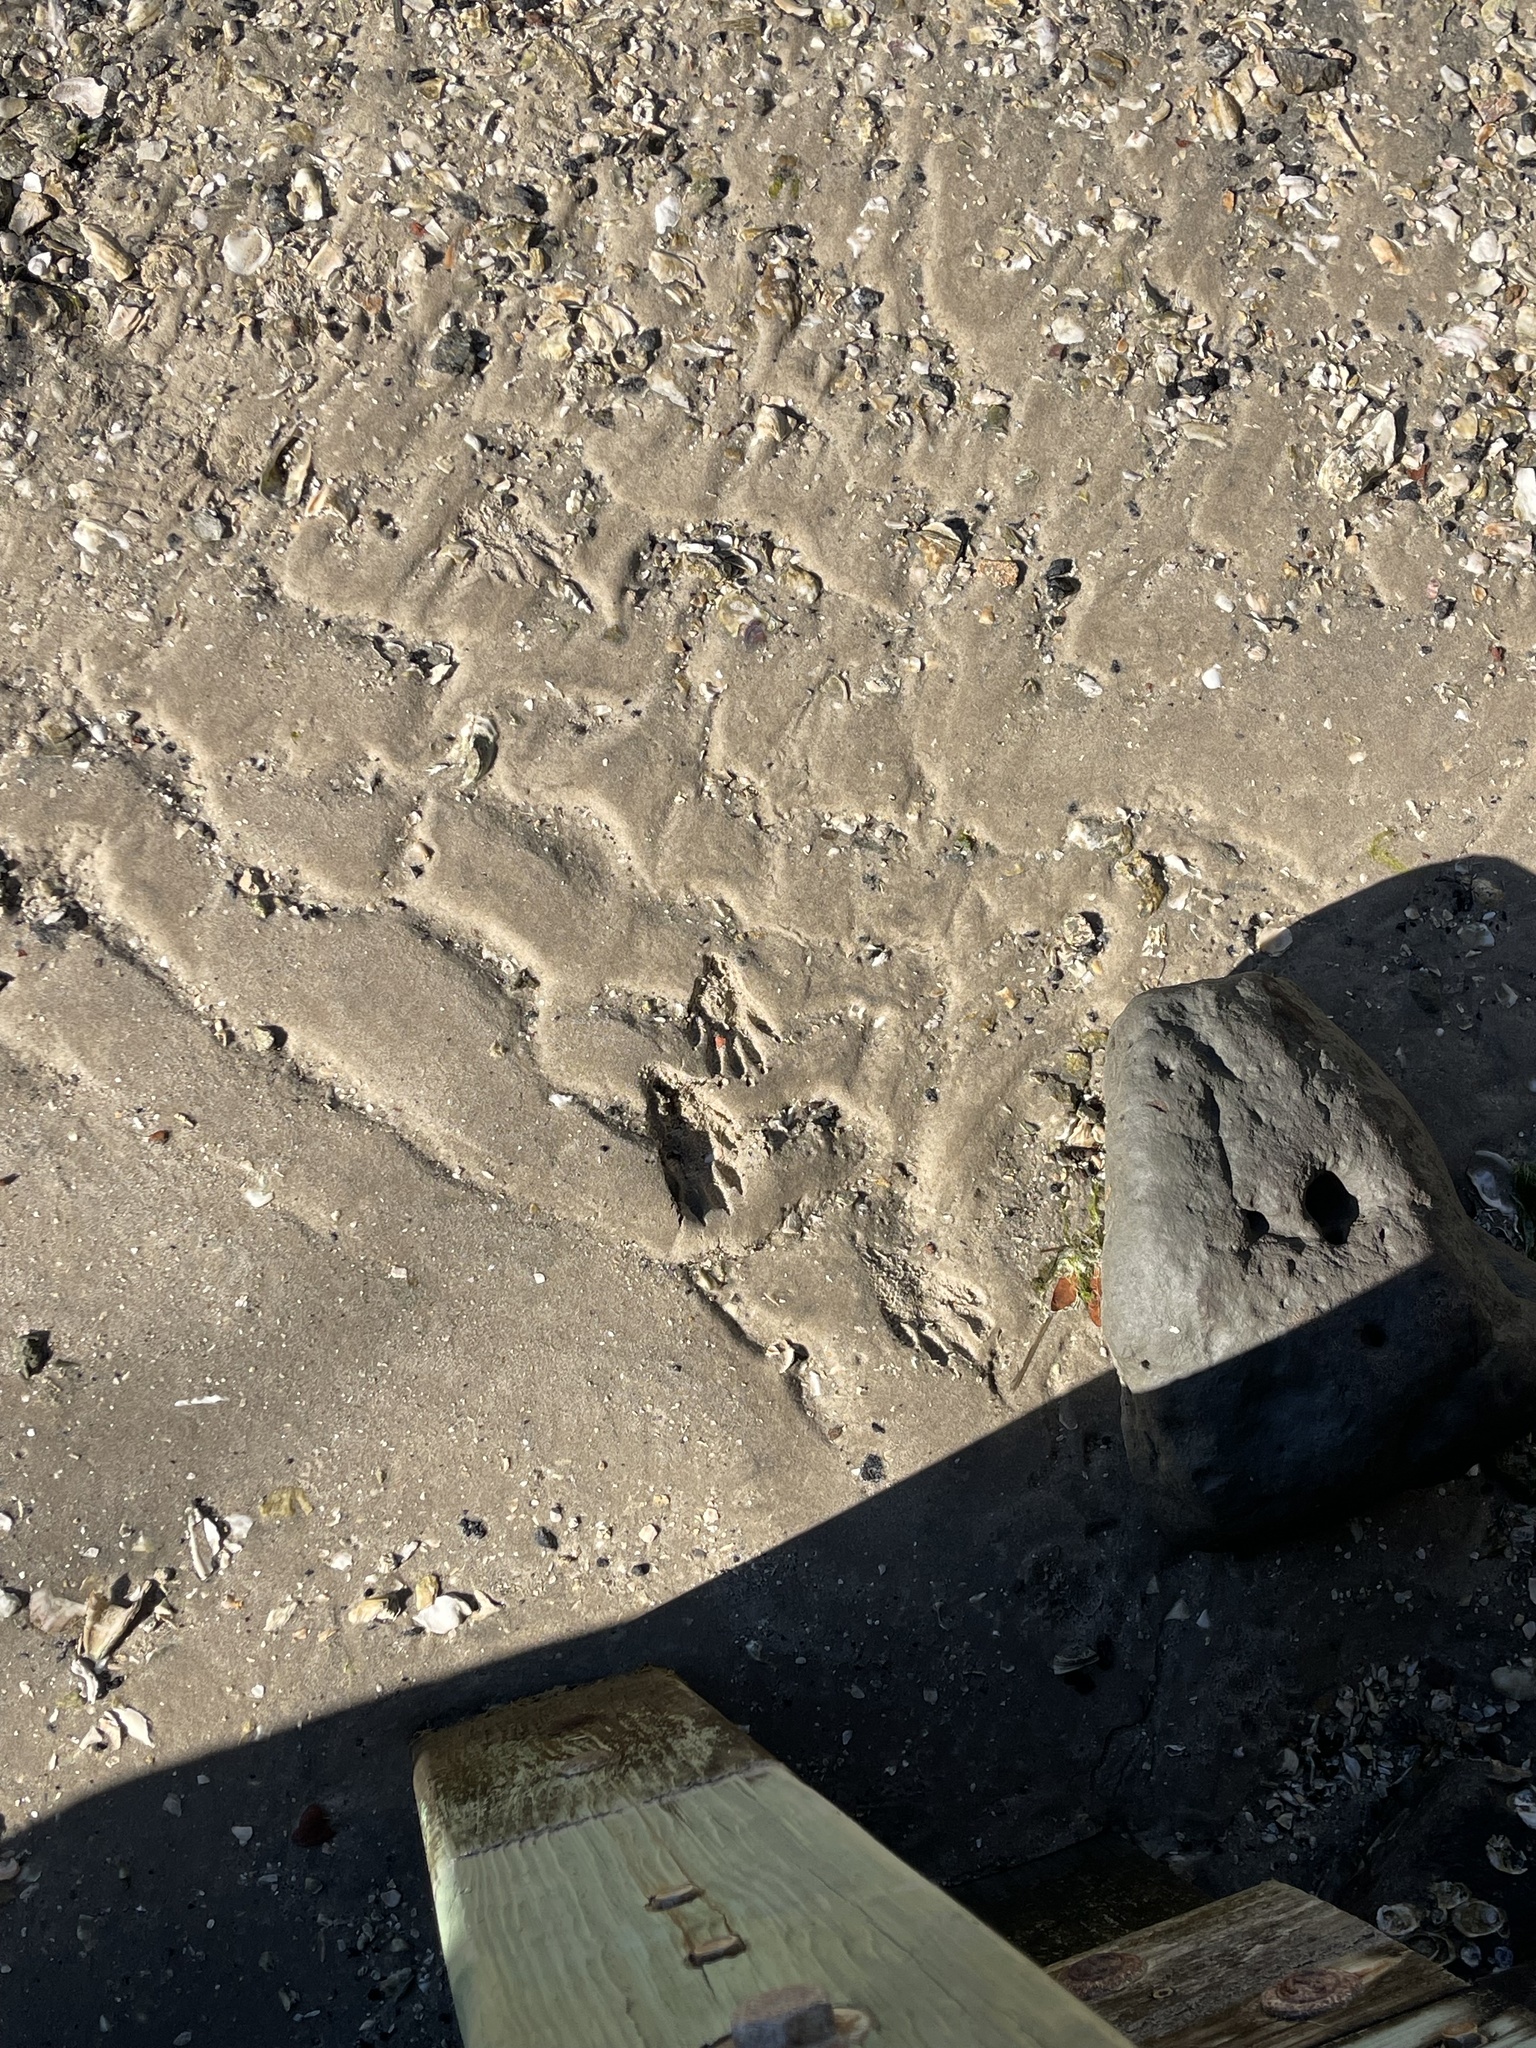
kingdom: Animalia
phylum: Chordata
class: Mammalia
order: Carnivora
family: Procyonidae
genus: Procyon
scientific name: Procyon lotor
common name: Raccoon
